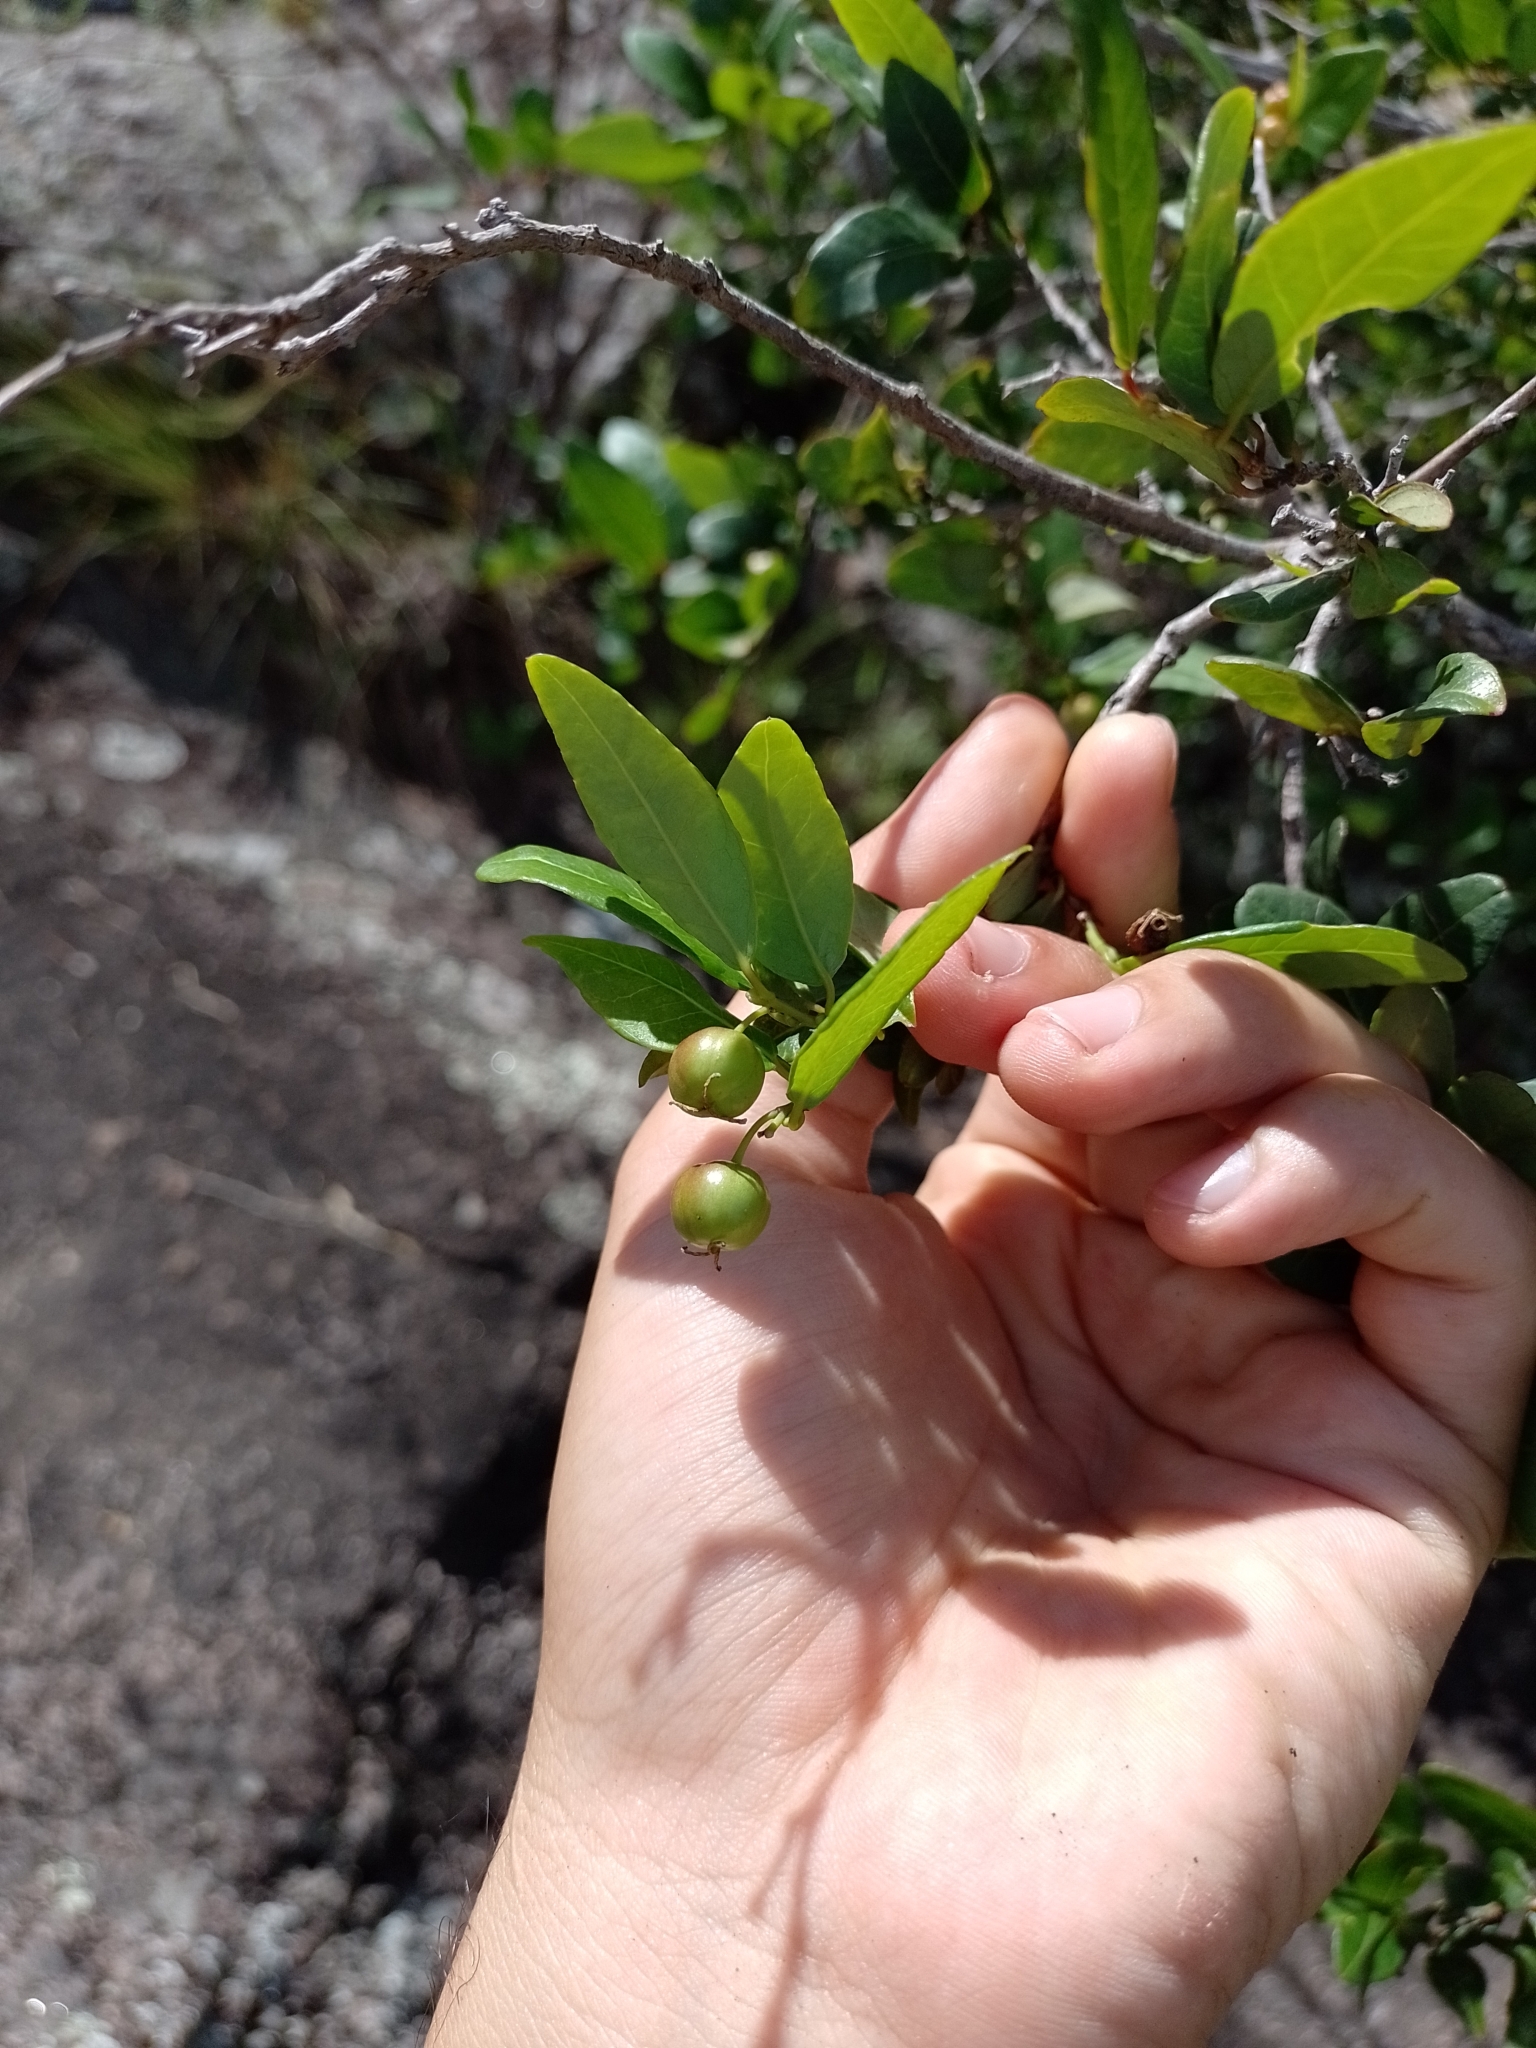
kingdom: Plantae
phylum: Tracheophyta
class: Magnoliopsida
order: Malpighiales
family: Euphorbiaceae
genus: Sebastiania
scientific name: Sebastiania klotzschiana
